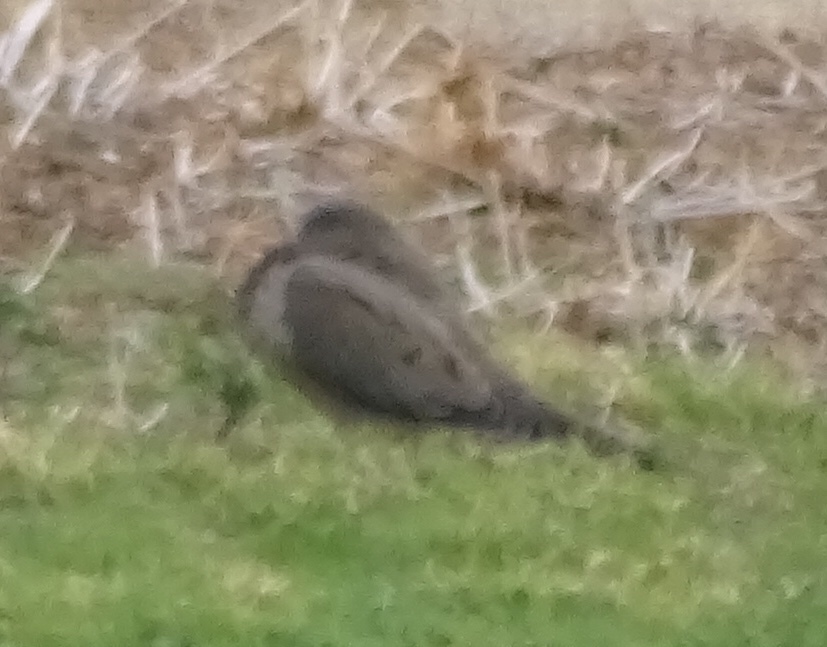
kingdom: Animalia
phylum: Chordata
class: Aves
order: Columbiformes
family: Columbidae
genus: Zenaida
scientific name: Zenaida macroura
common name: Mourning dove
